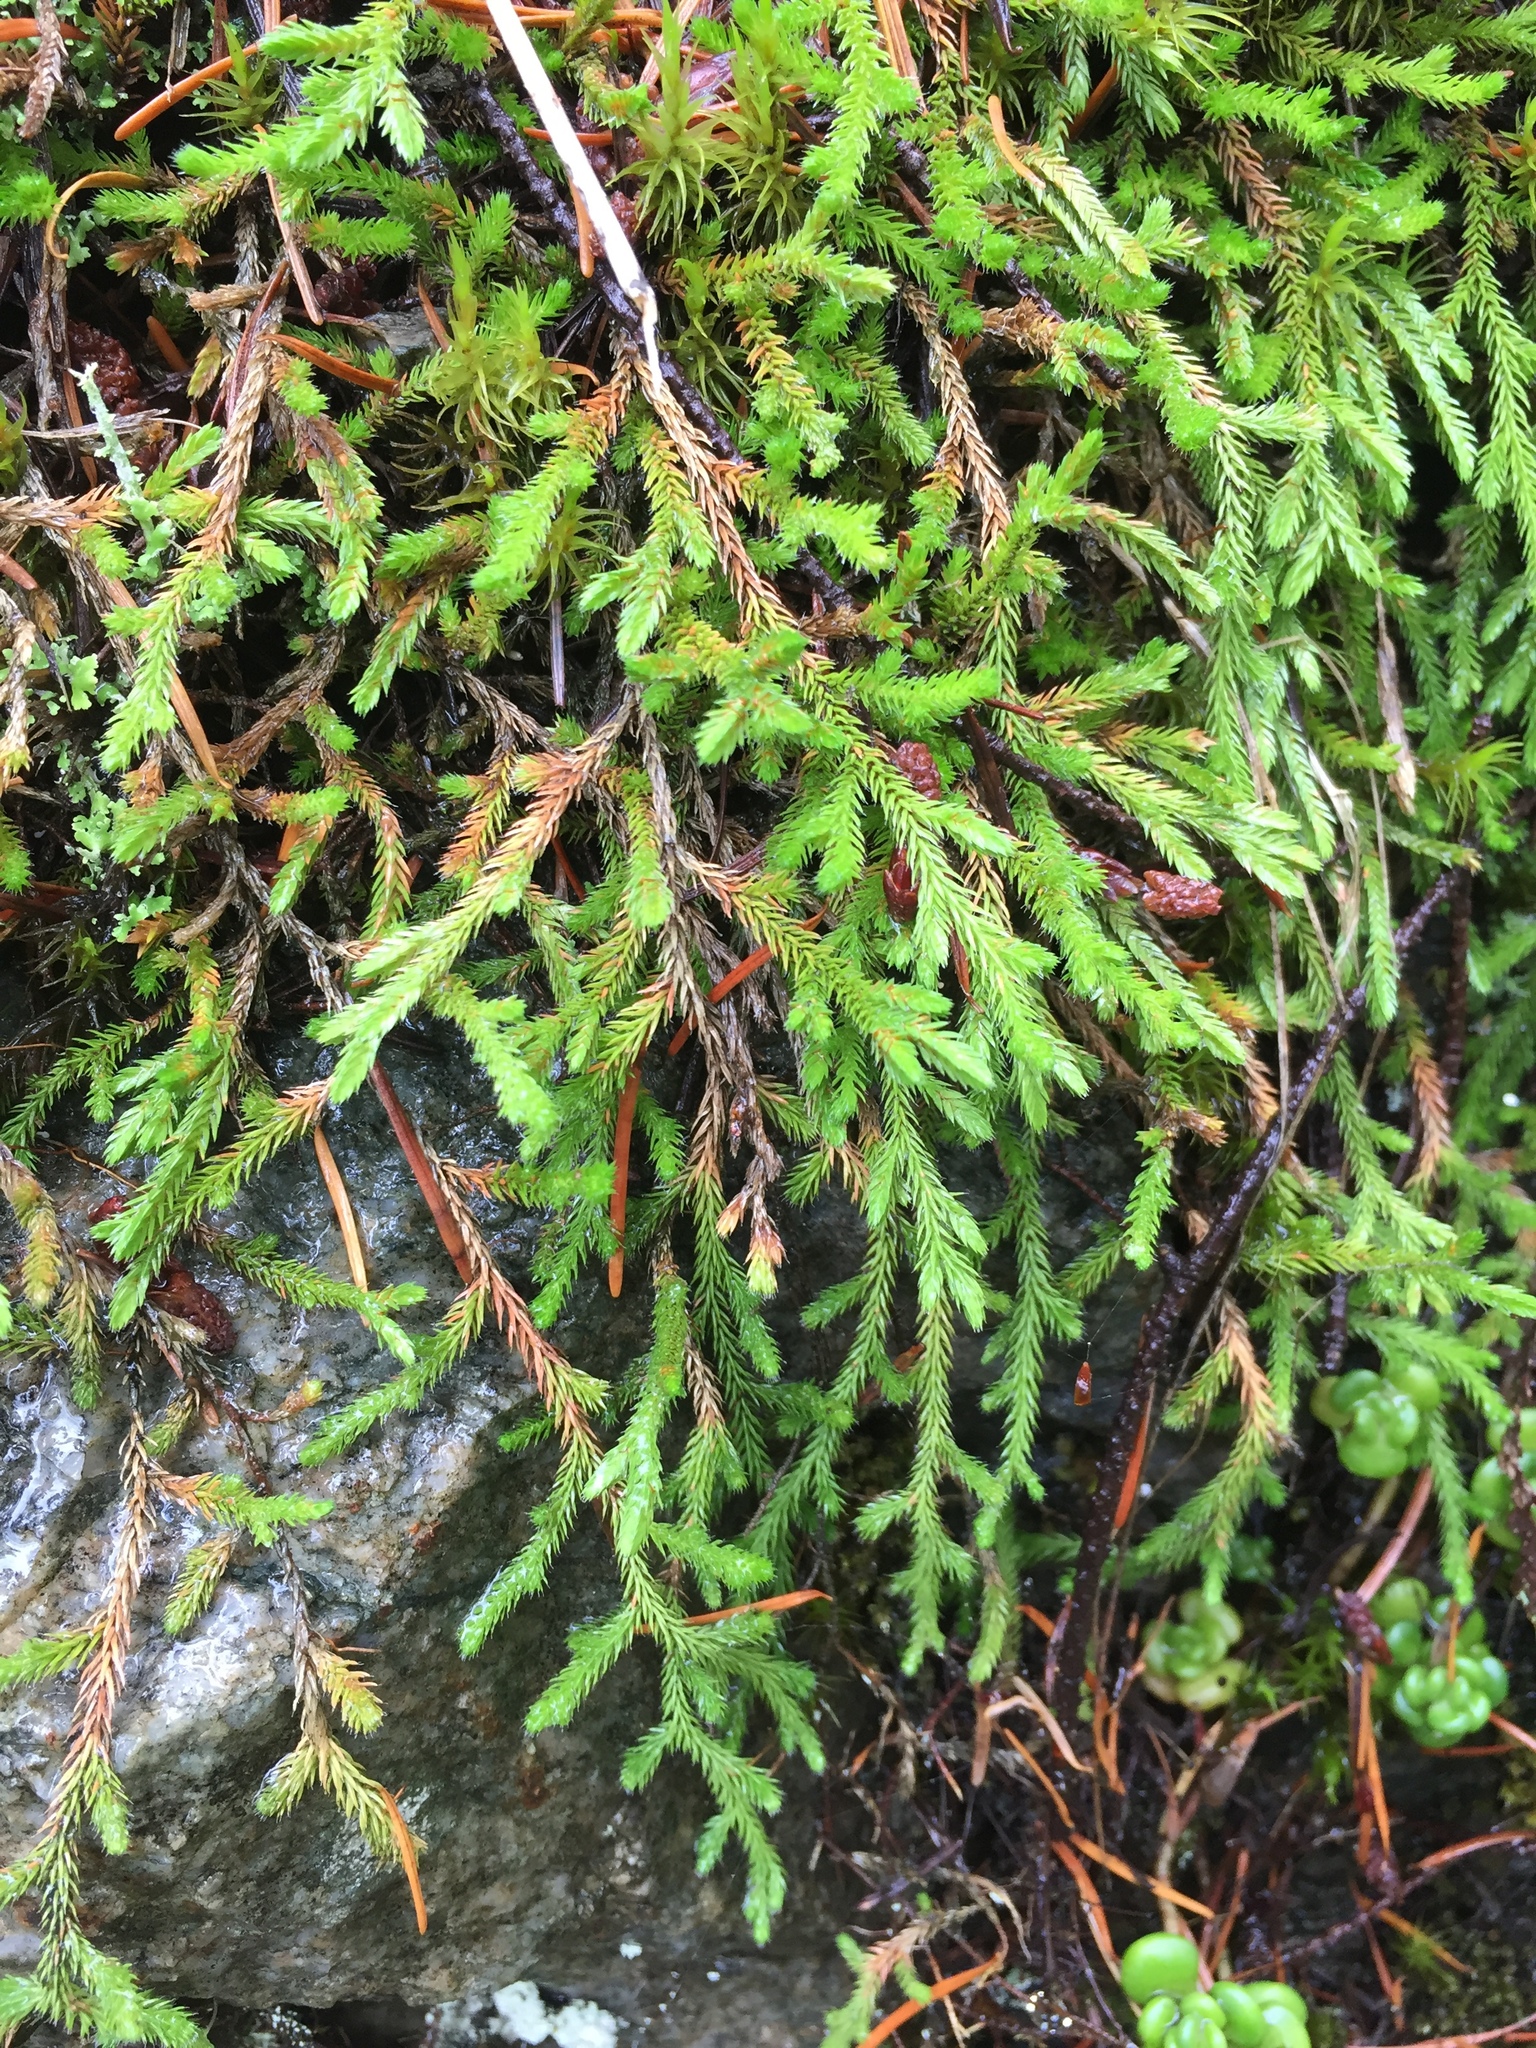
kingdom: Plantae
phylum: Tracheophyta
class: Lycopodiopsida
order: Selaginellales
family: Selaginellaceae
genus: Selaginella
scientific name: Selaginella wallacei
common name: Wallace's selaginella
